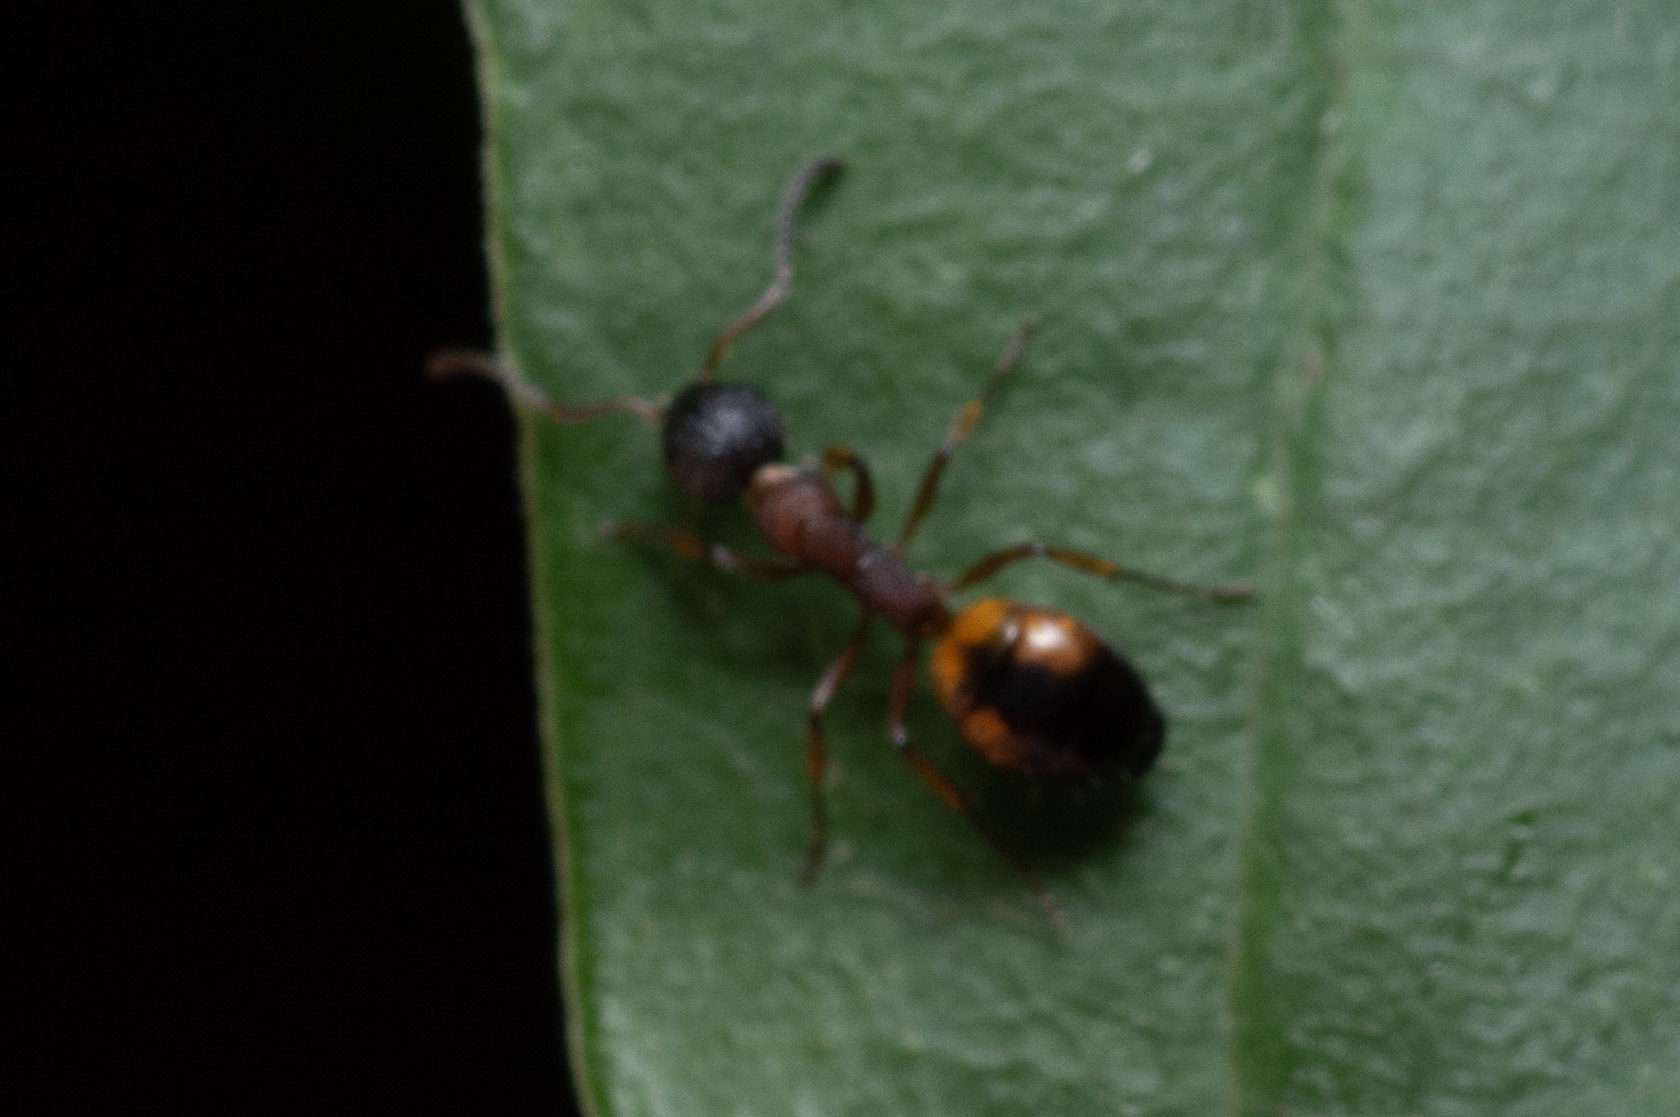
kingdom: Animalia
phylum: Arthropoda
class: Insecta
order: Hymenoptera
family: Formicidae
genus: Dolichoderus
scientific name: Dolichoderus plagiatus
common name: Mottled dolichoderus
